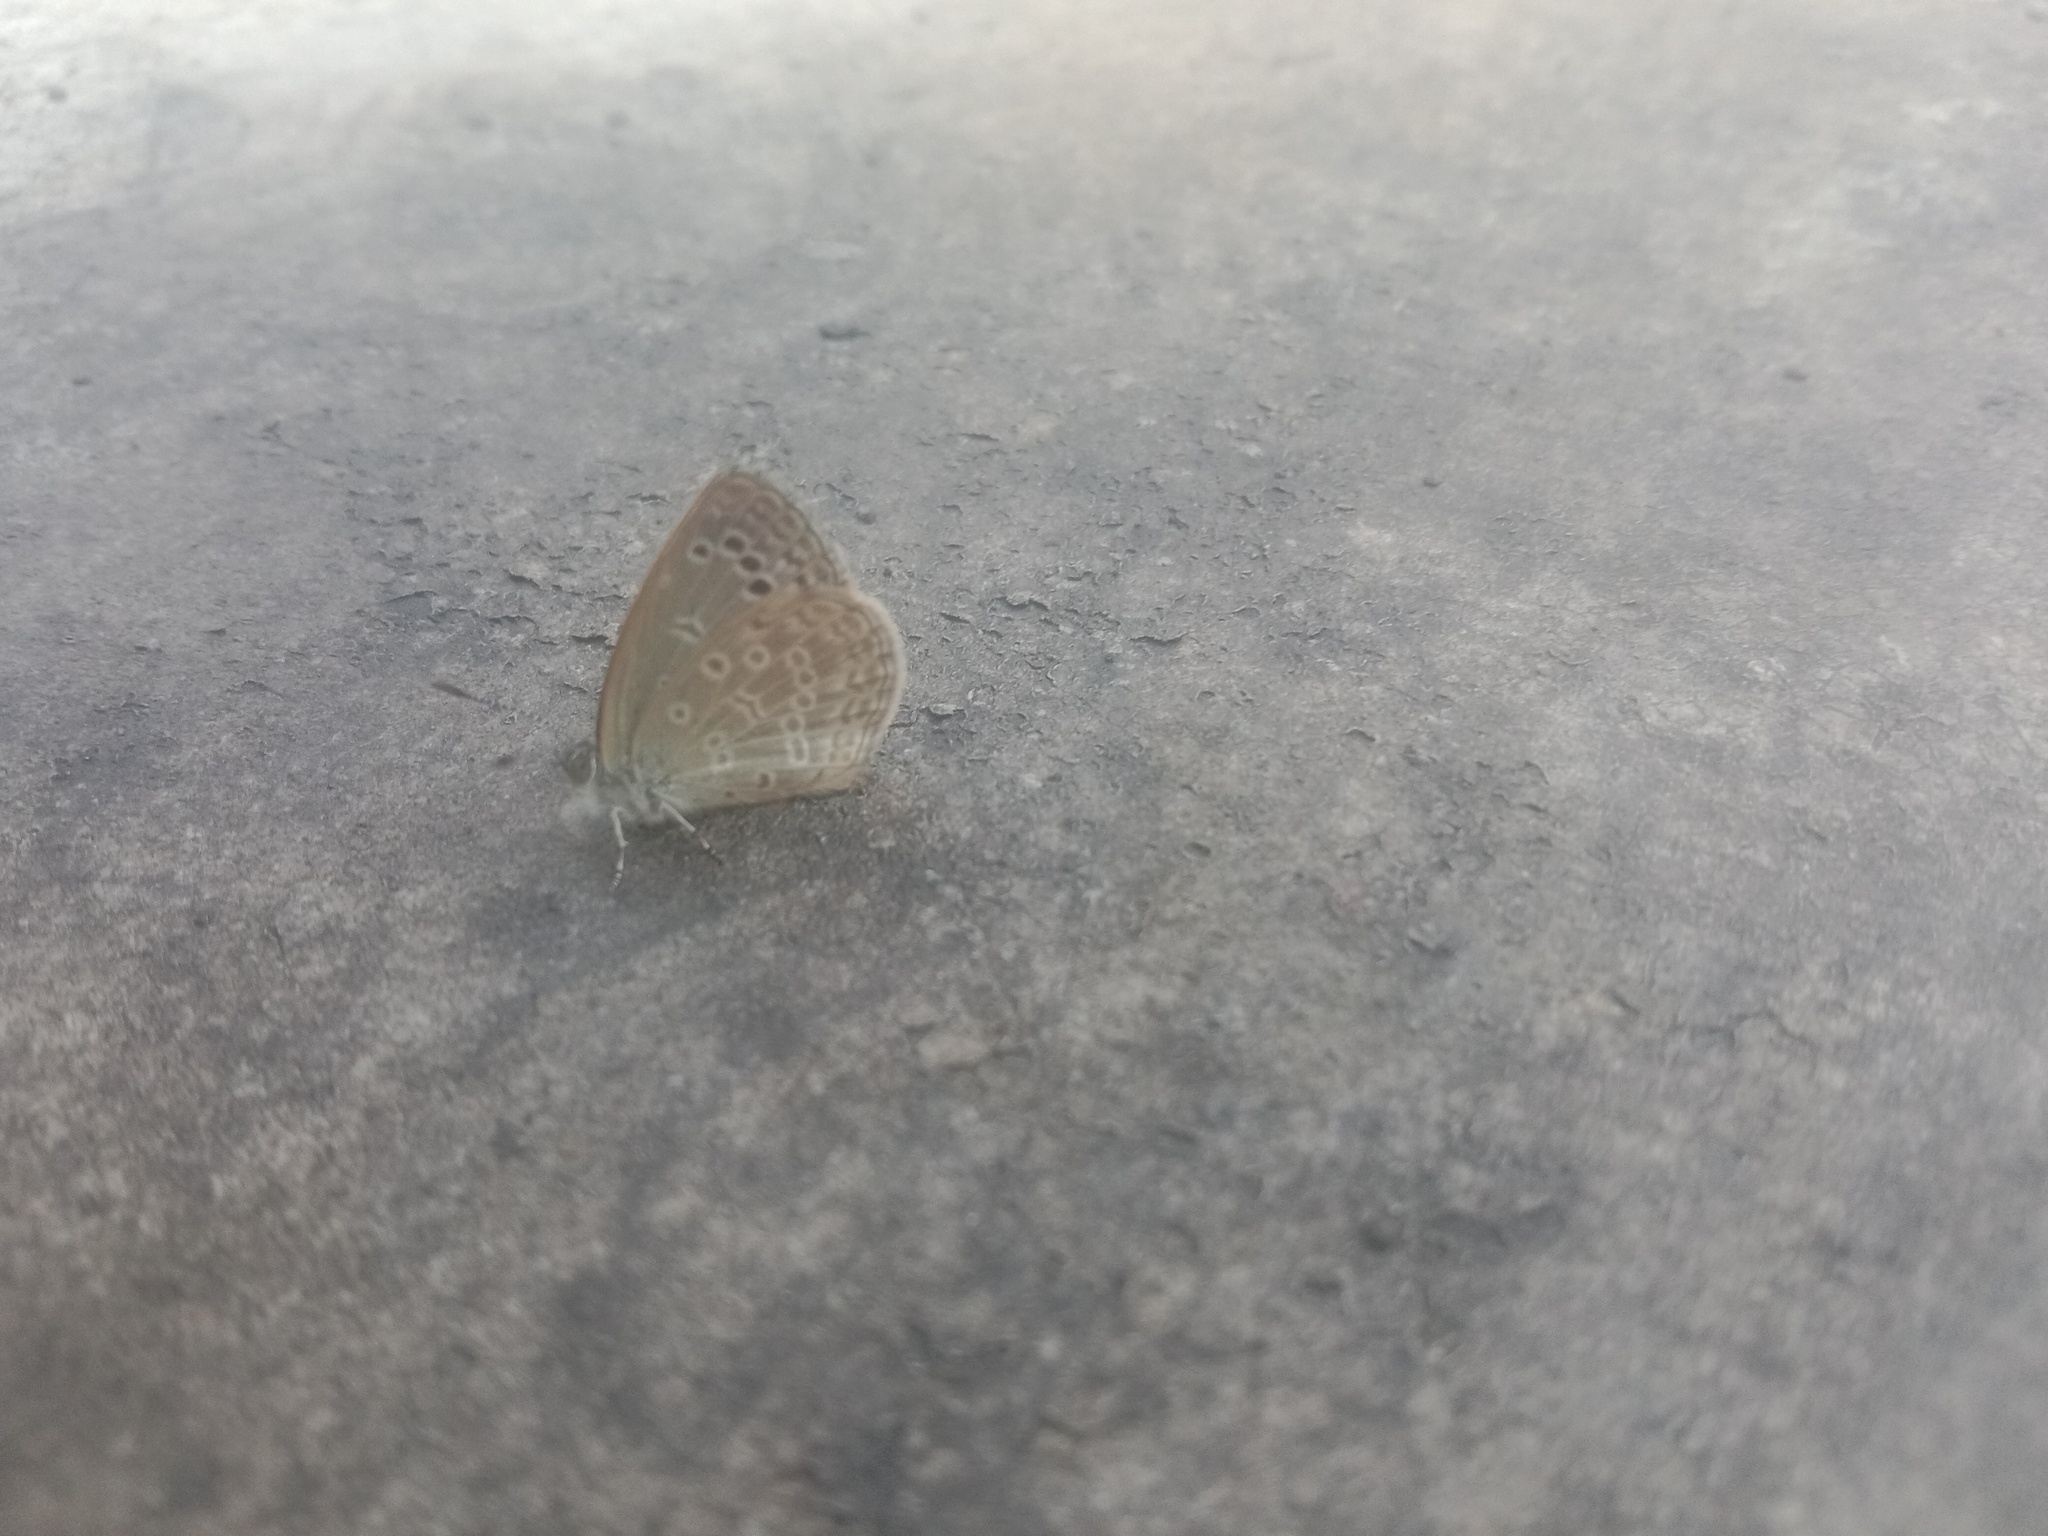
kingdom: Animalia
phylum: Arthropoda
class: Insecta
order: Lepidoptera
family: Lycaenidae
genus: Pseudozizeeria
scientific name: Pseudozizeeria maha
